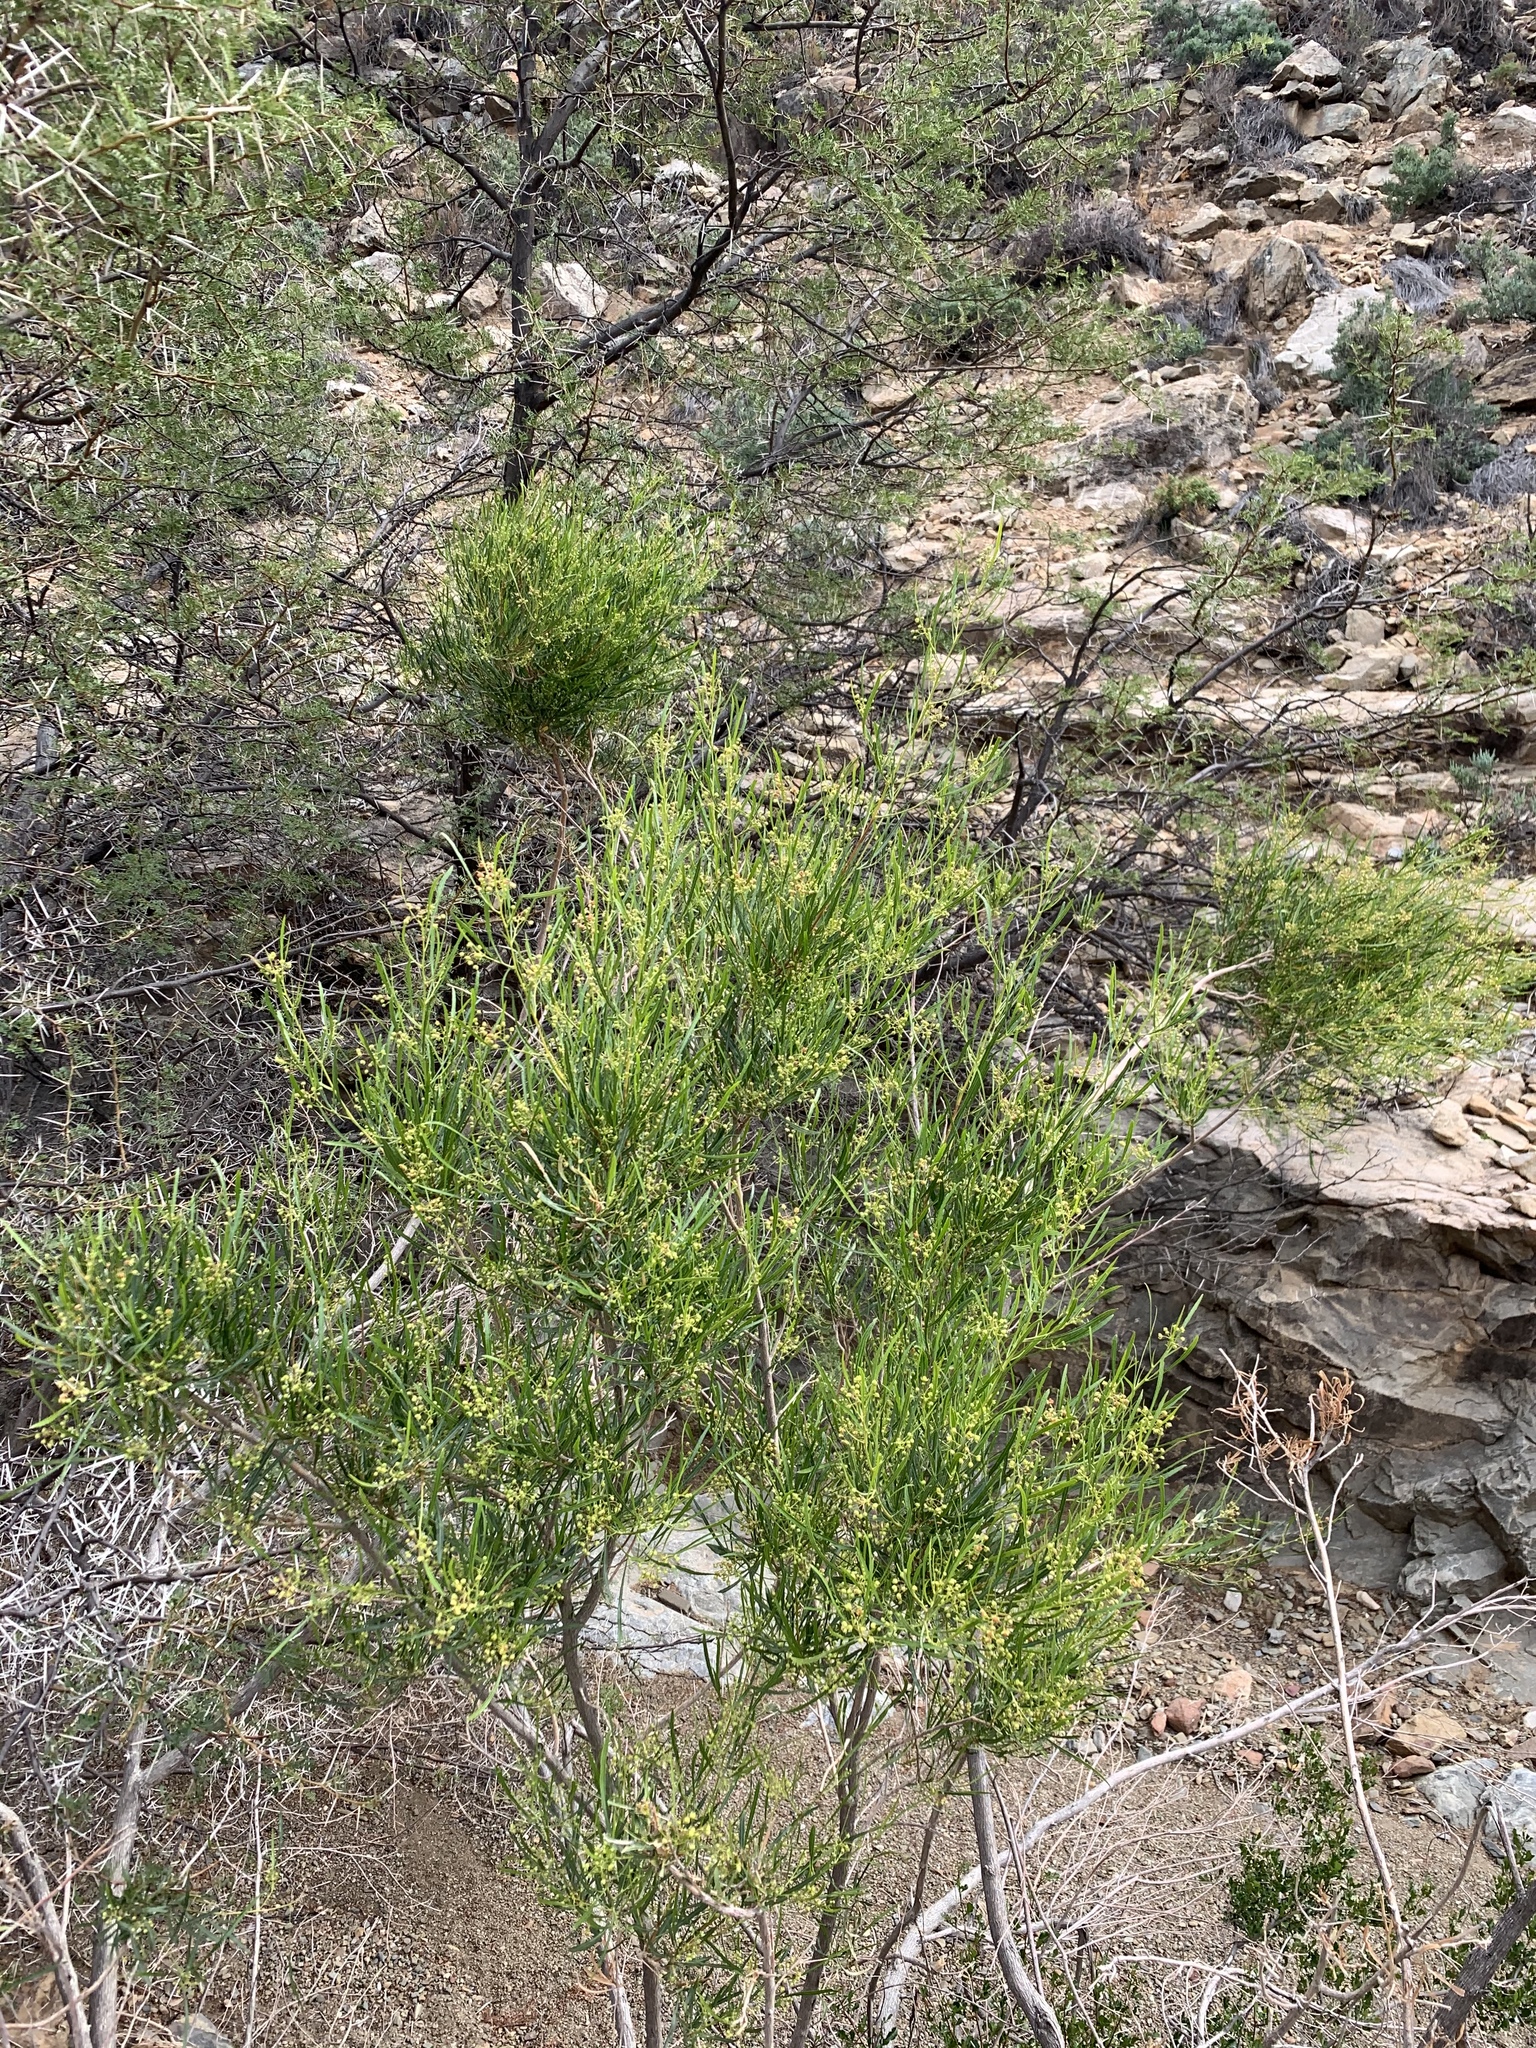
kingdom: Plantae
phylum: Tracheophyta
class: Magnoliopsida
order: Sapindales
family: Sapindaceae
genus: Dodonaea
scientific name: Dodonaea viscosa
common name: Hopbush
